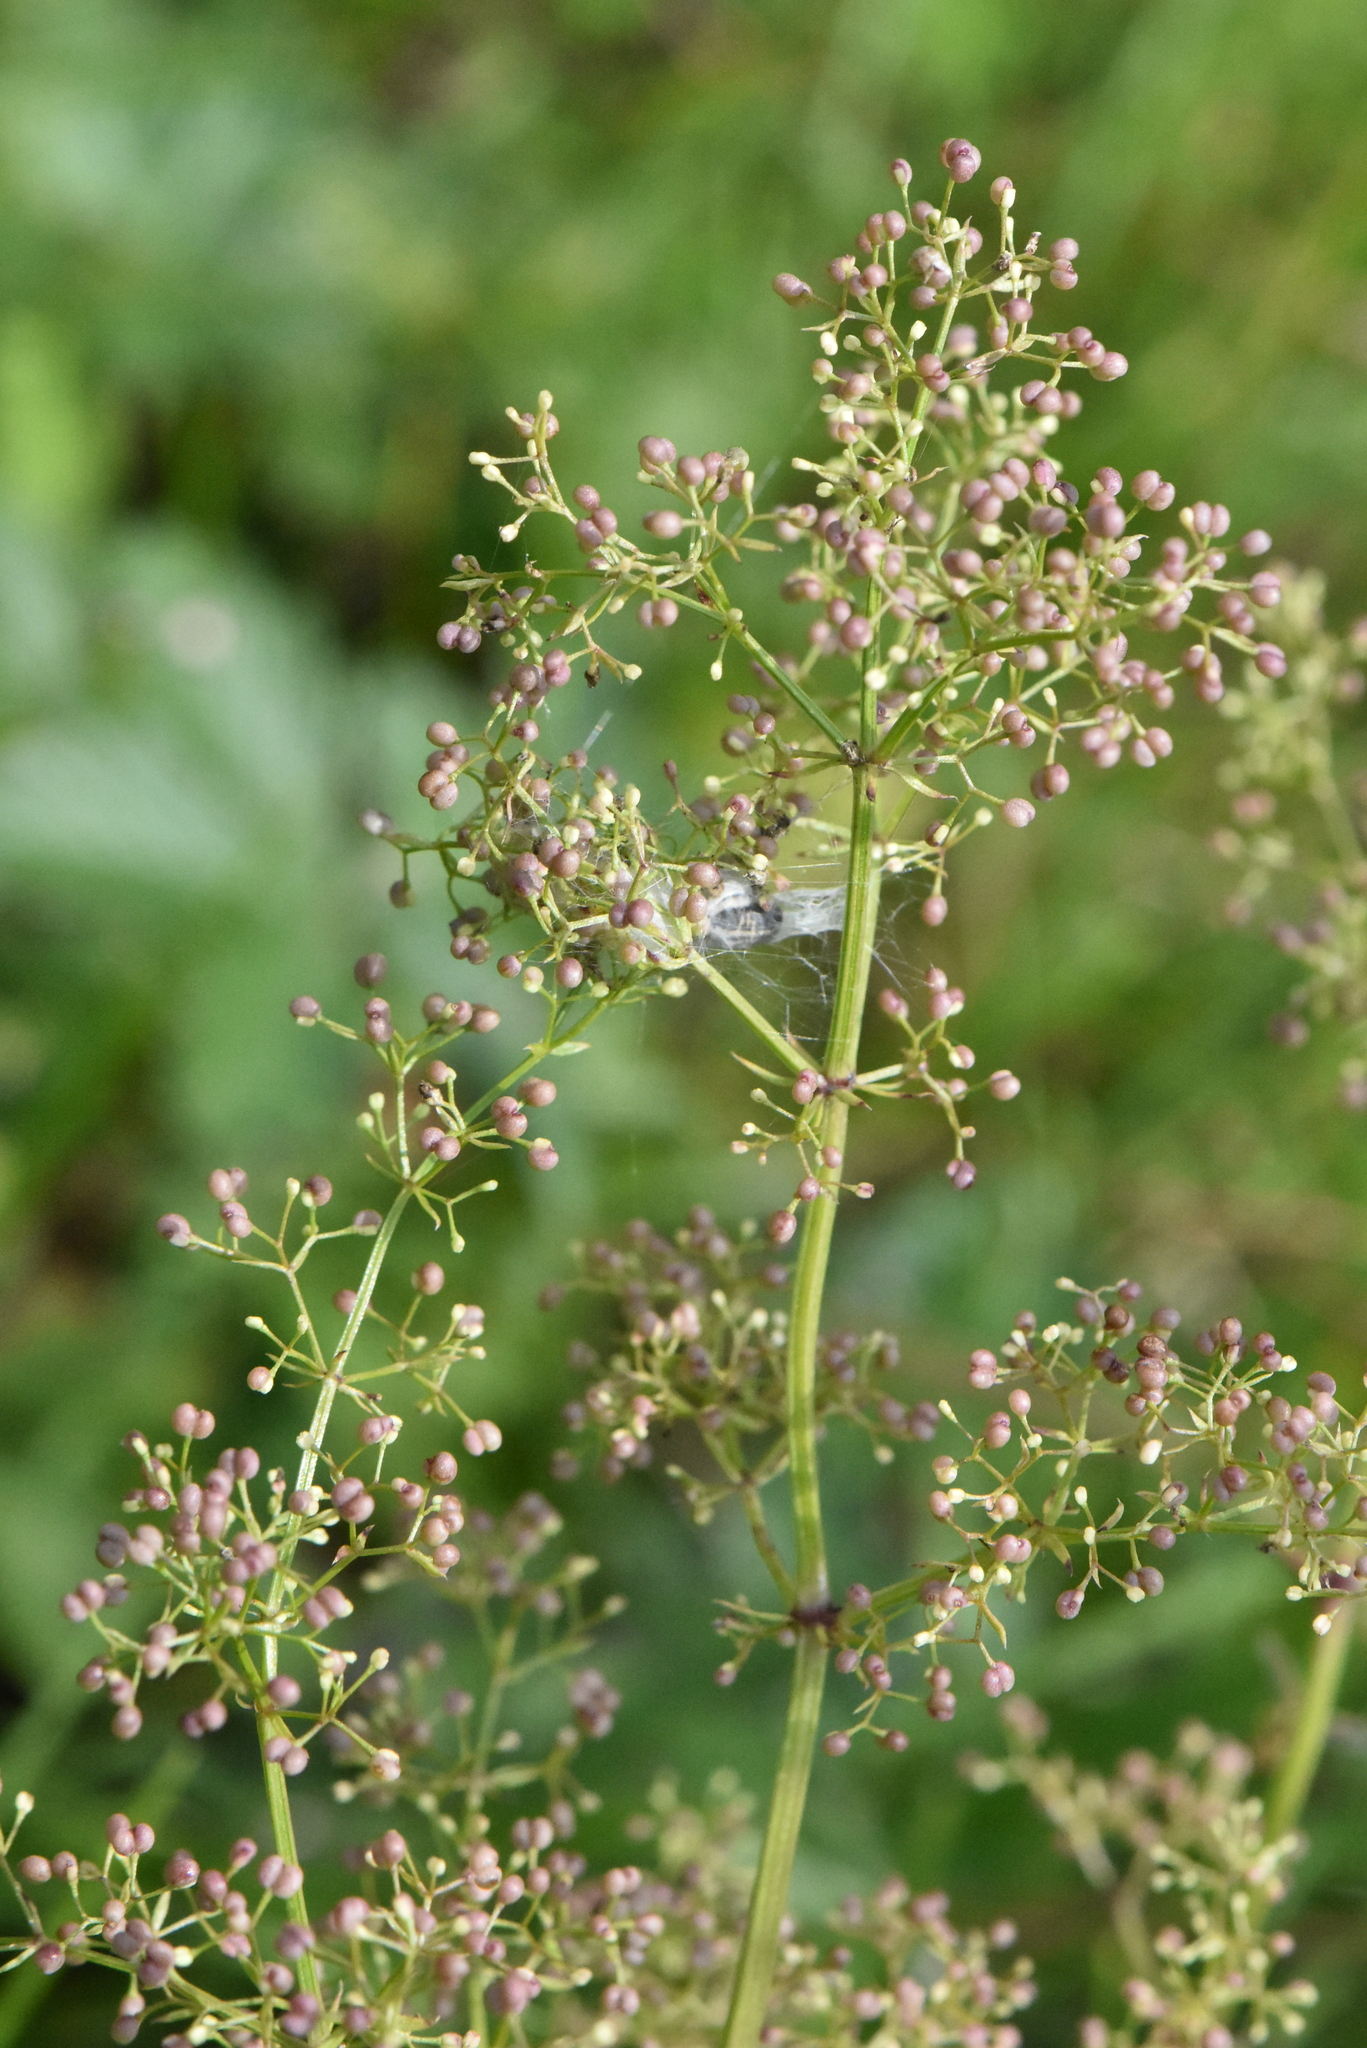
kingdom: Plantae
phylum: Tracheophyta
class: Magnoliopsida
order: Gentianales
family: Rubiaceae
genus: Galium
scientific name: Galium mollugo
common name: Hedge bedstraw
